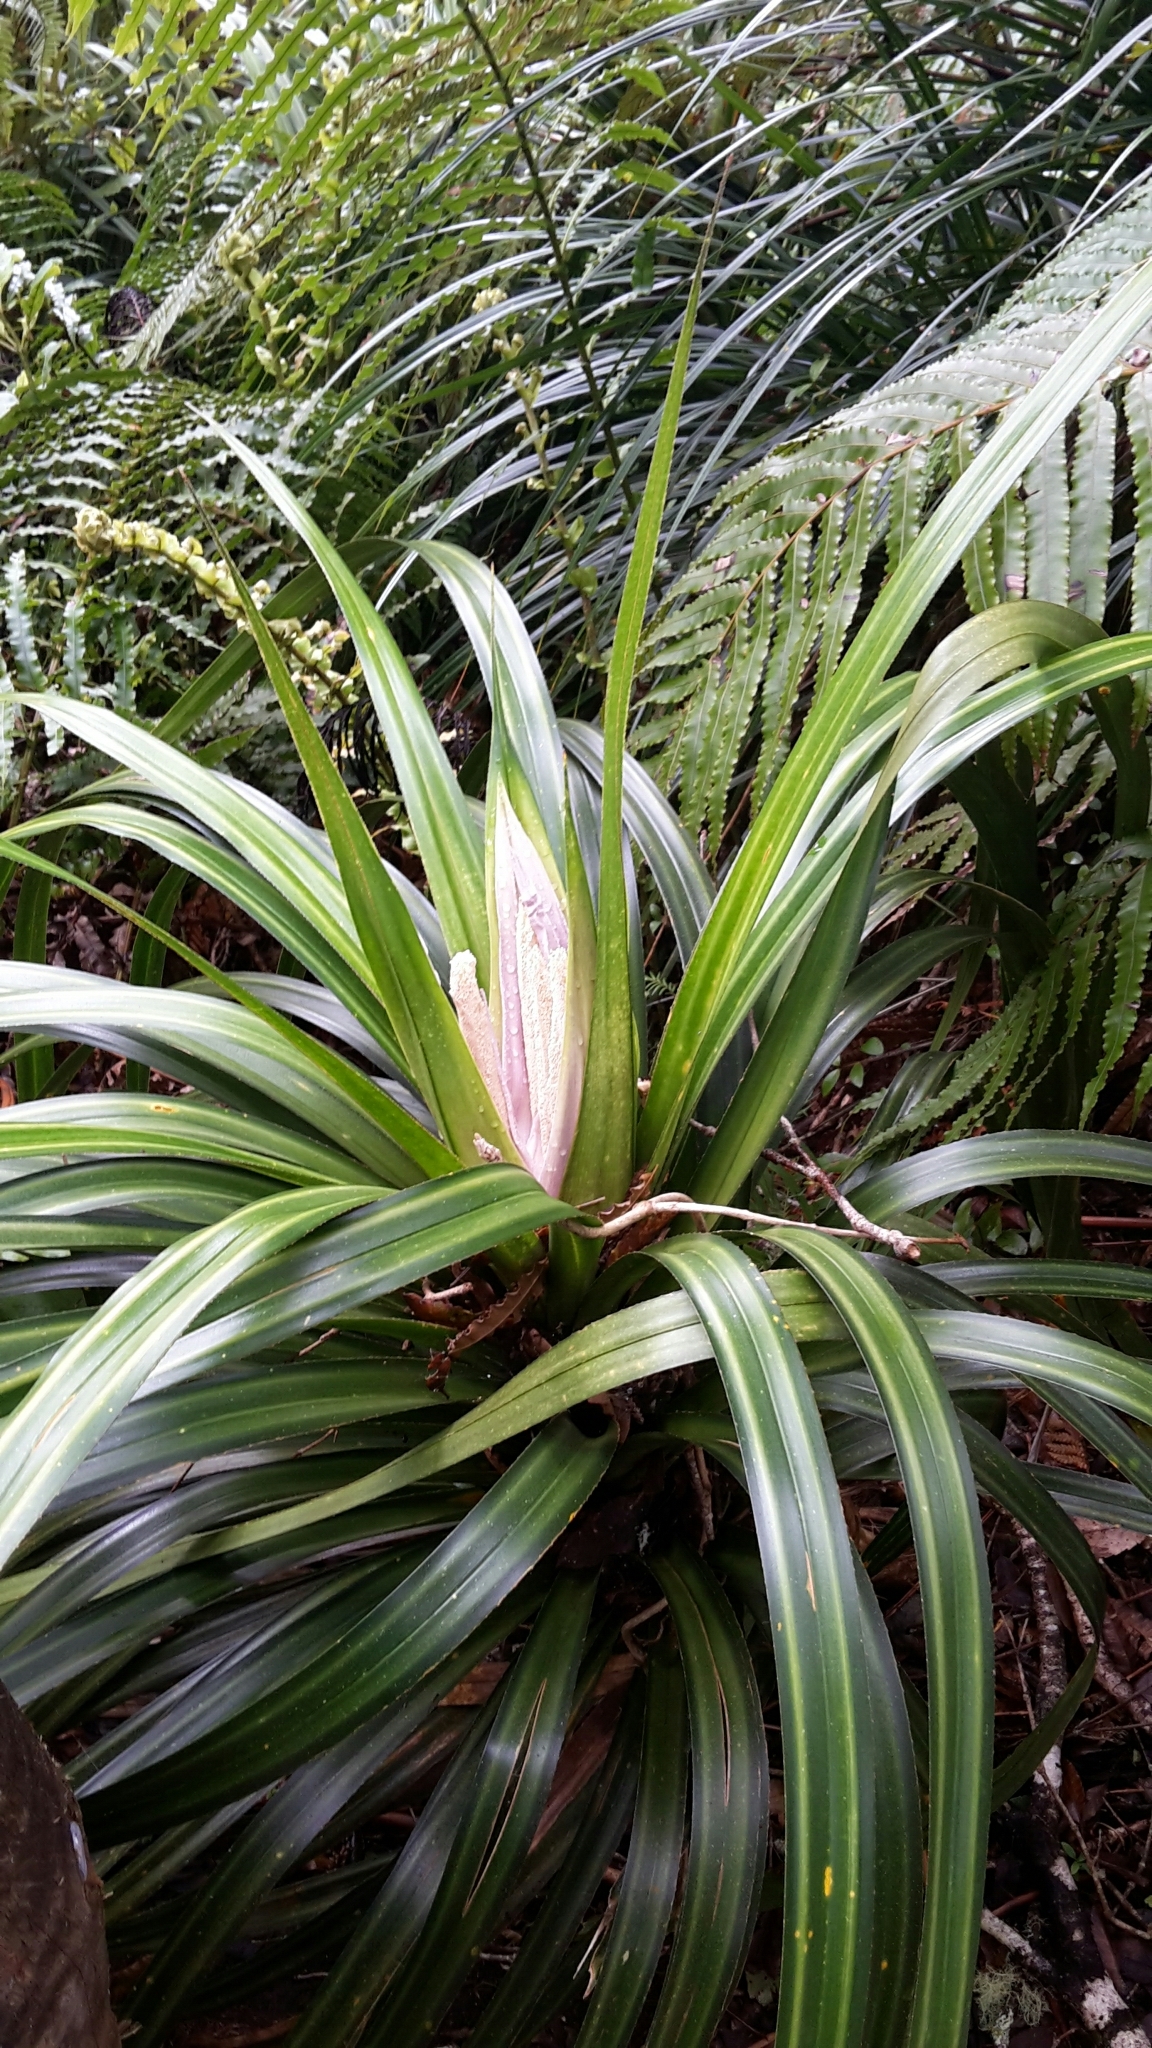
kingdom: Plantae
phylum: Tracheophyta
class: Liliopsida
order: Pandanales
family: Pandanaceae
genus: Freycinetia
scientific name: Freycinetia banksii
